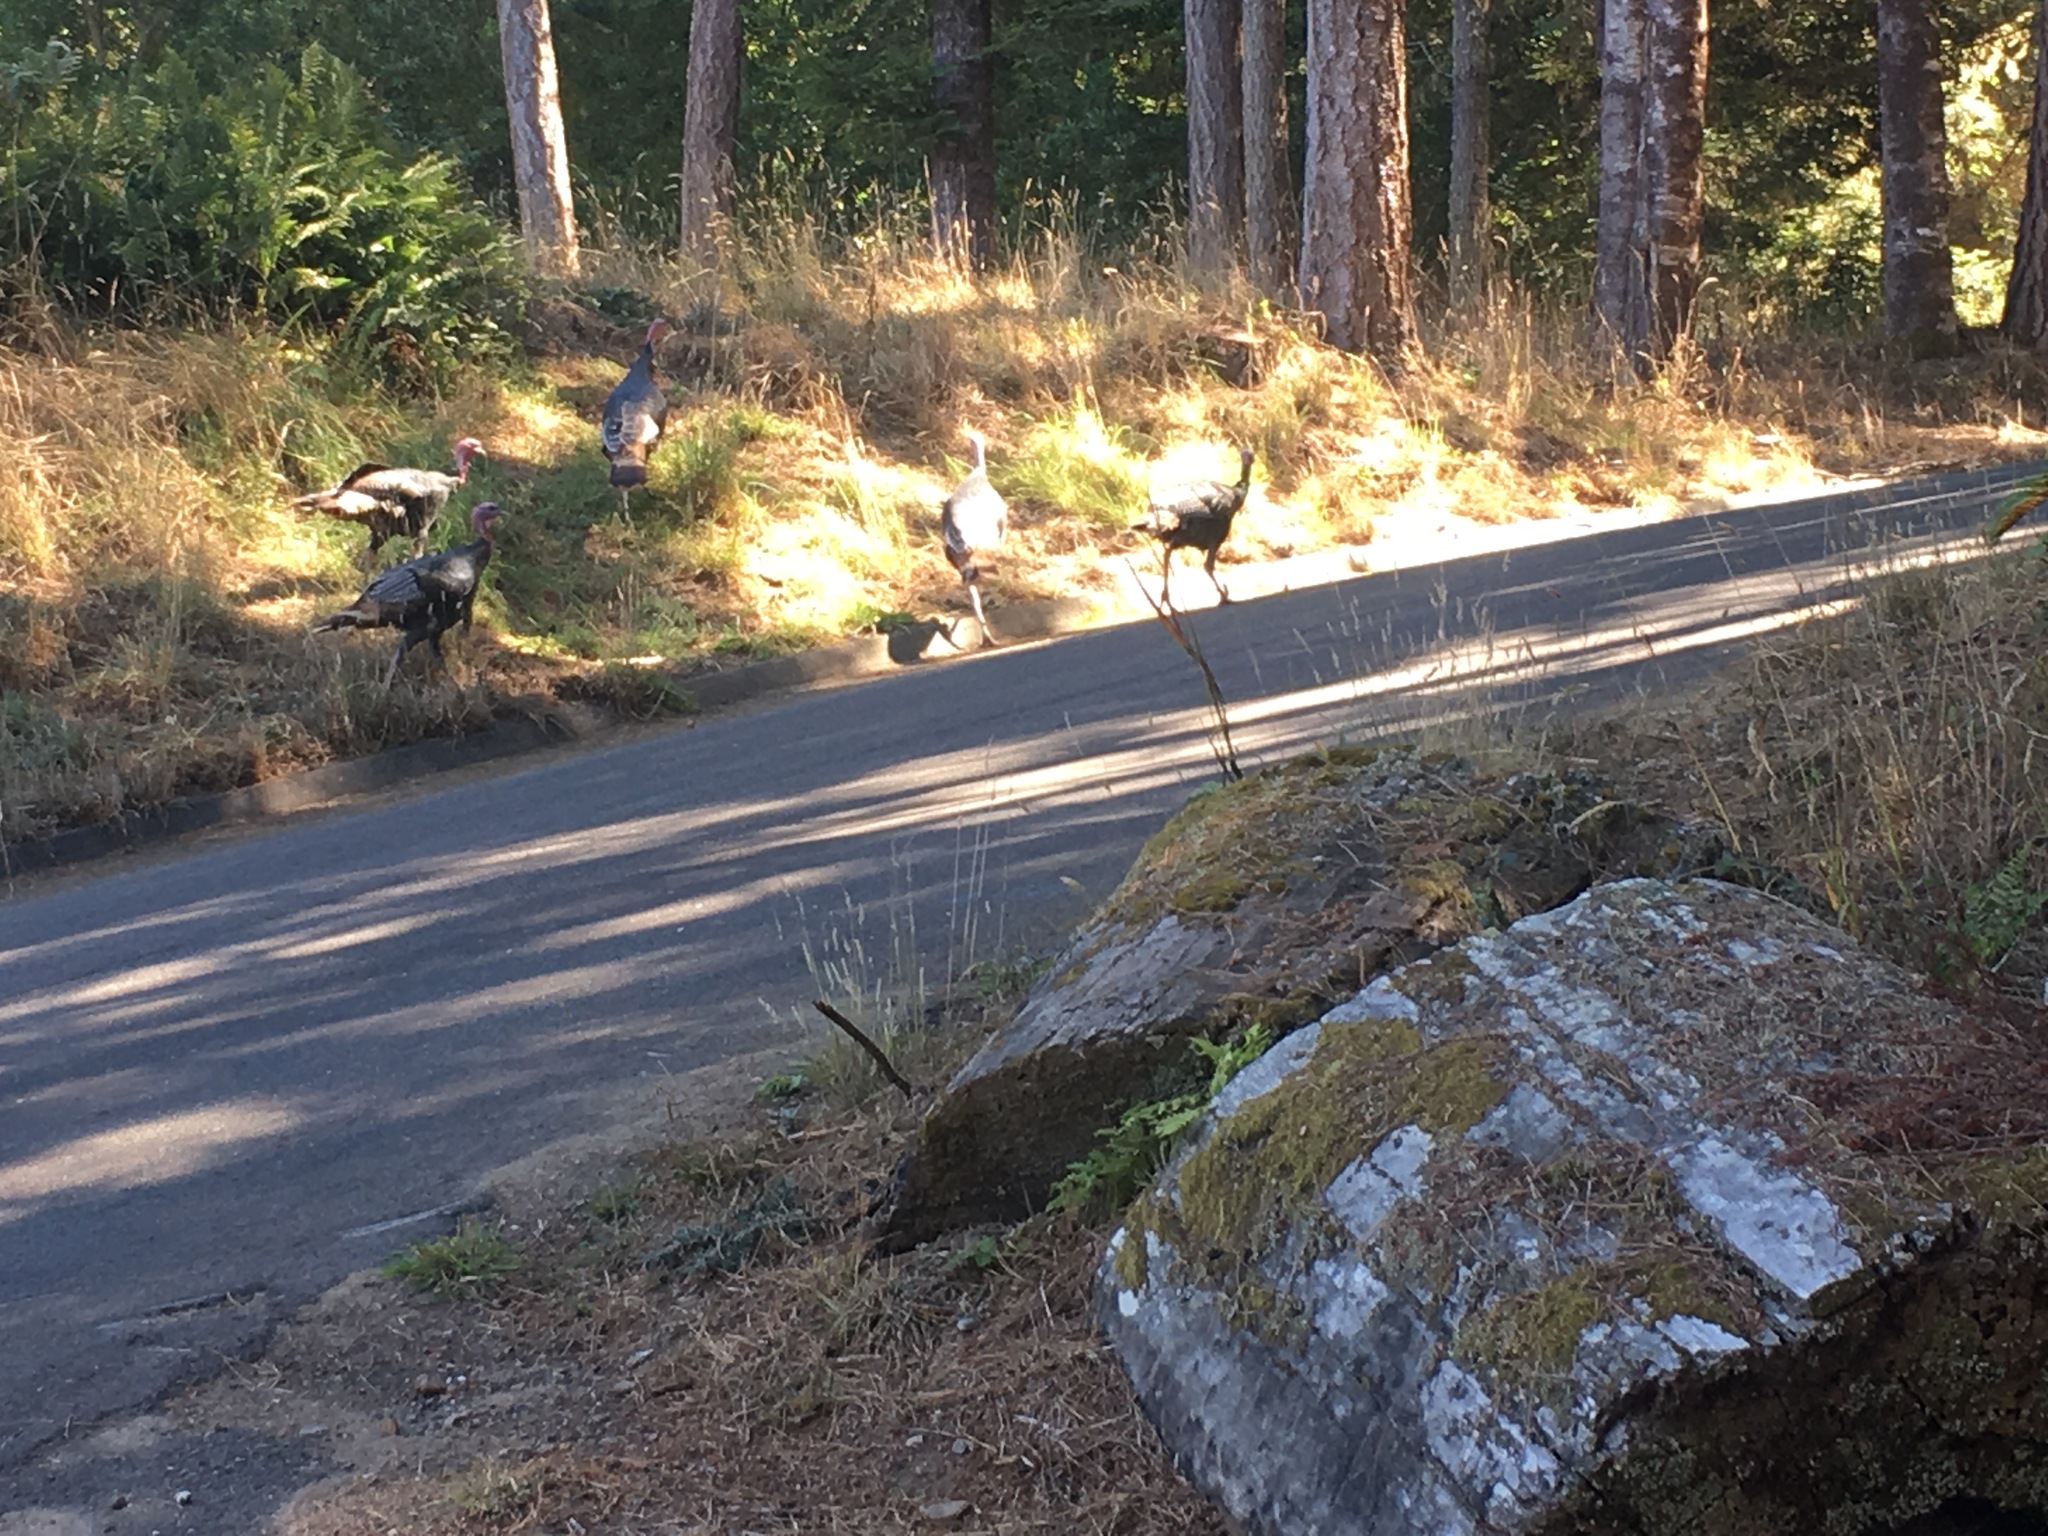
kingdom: Animalia
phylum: Chordata
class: Aves
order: Galliformes
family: Phasianidae
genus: Meleagris
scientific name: Meleagris gallopavo
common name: Wild turkey
